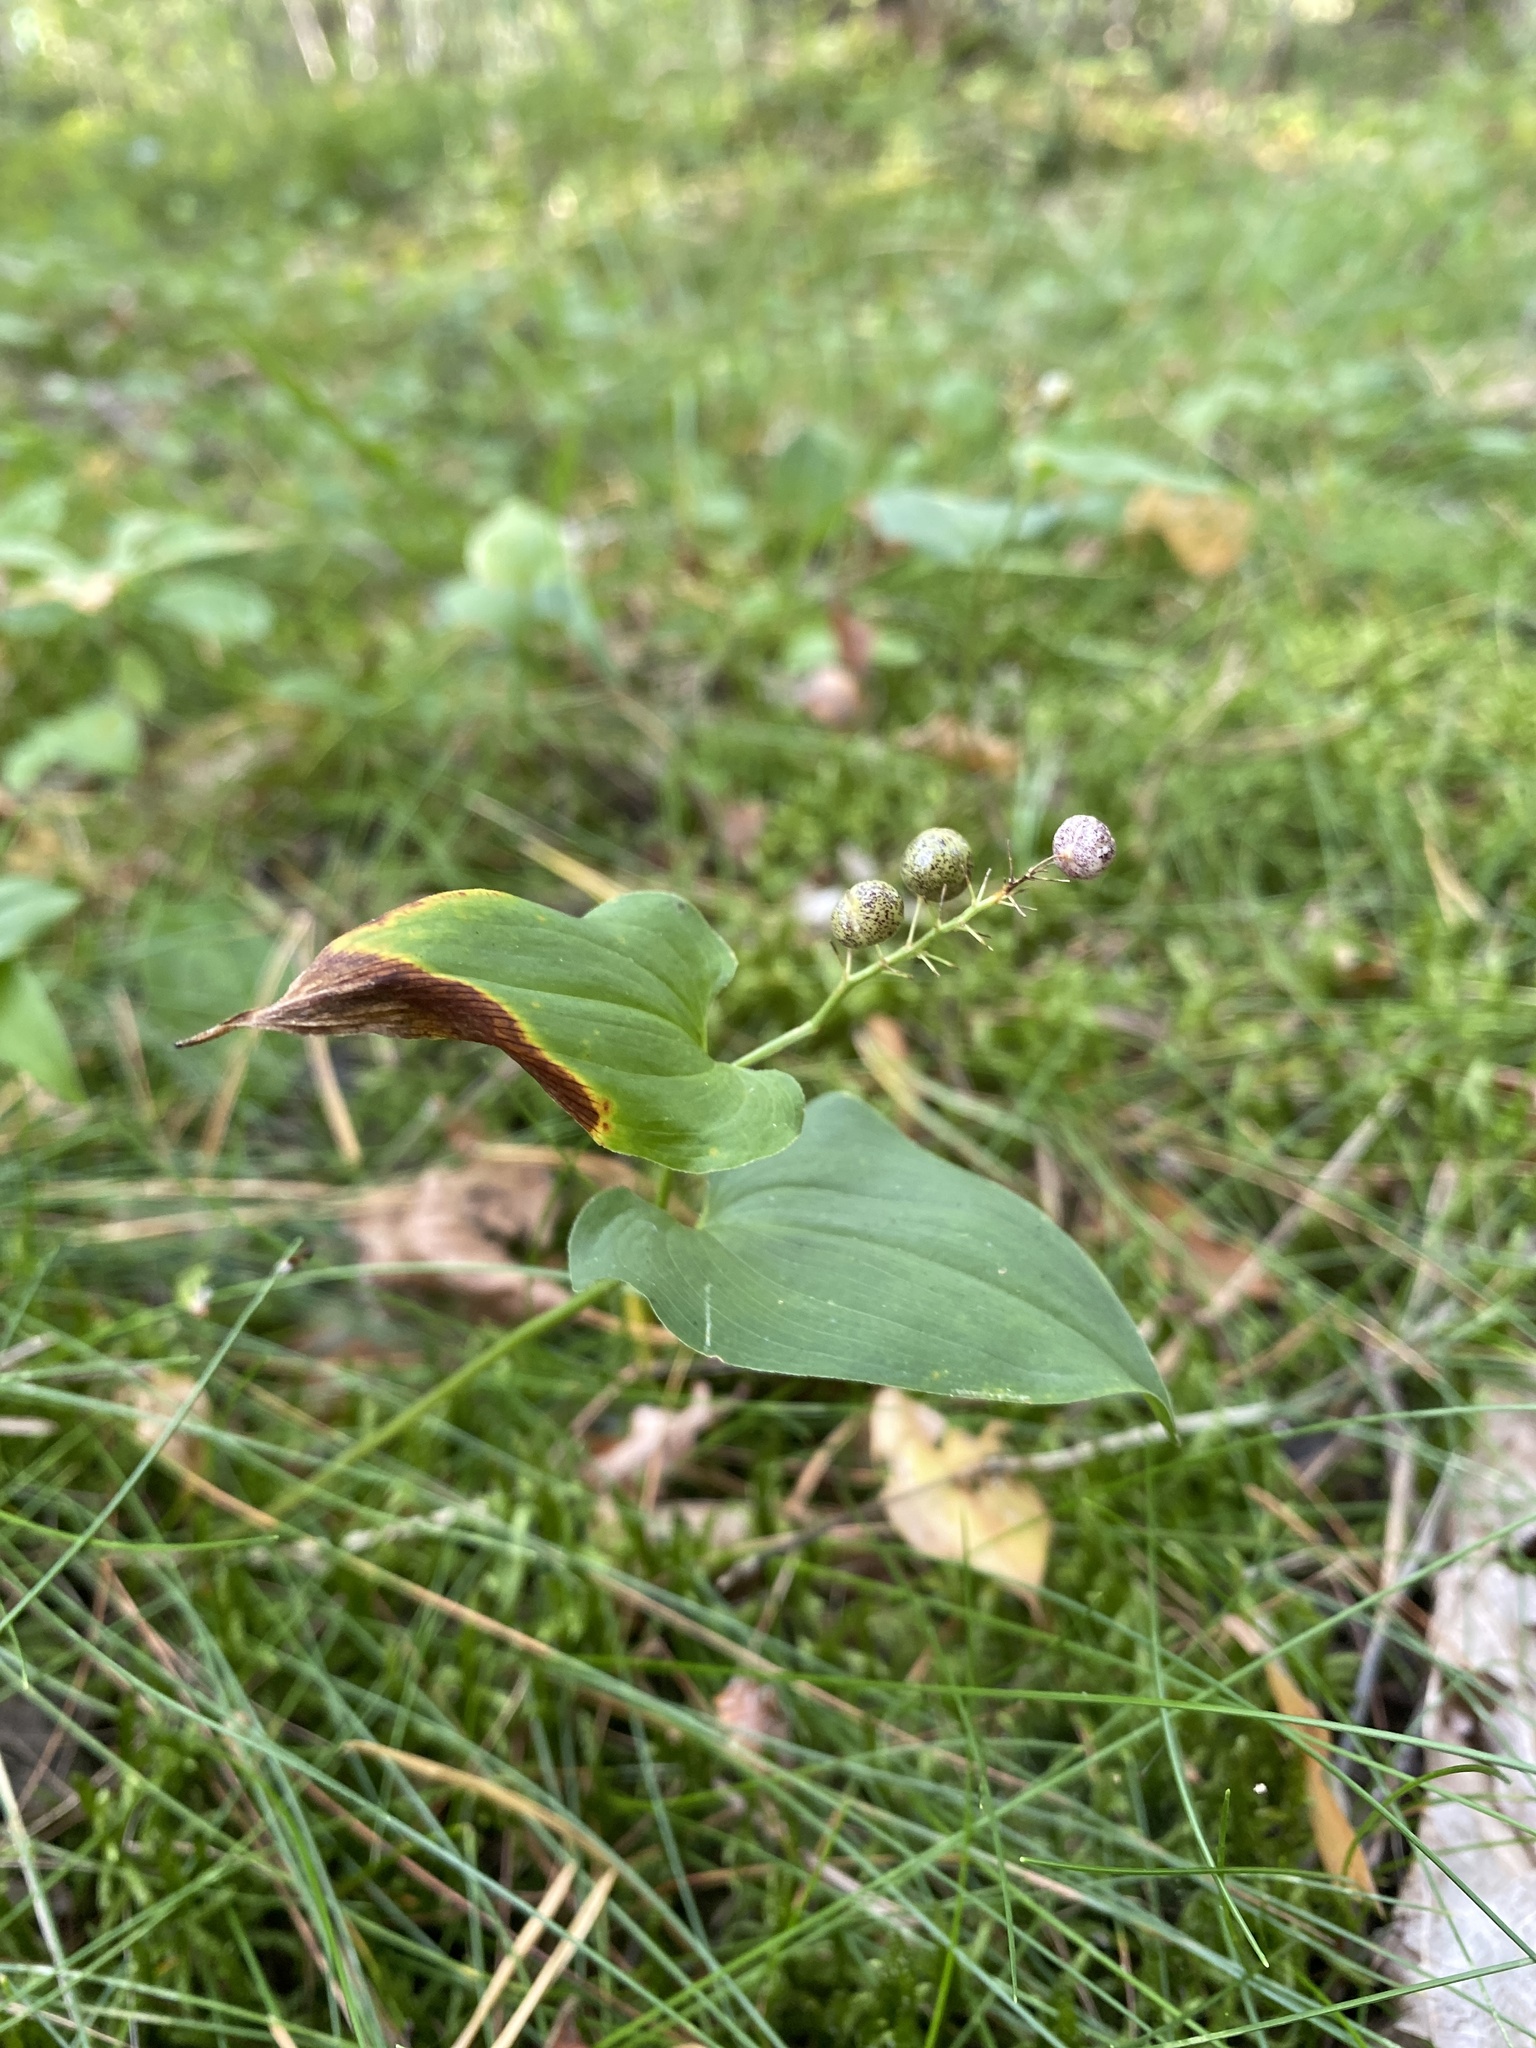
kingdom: Plantae
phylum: Tracheophyta
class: Liliopsida
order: Asparagales
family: Asparagaceae
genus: Maianthemum
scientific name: Maianthemum bifolium
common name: May lily
